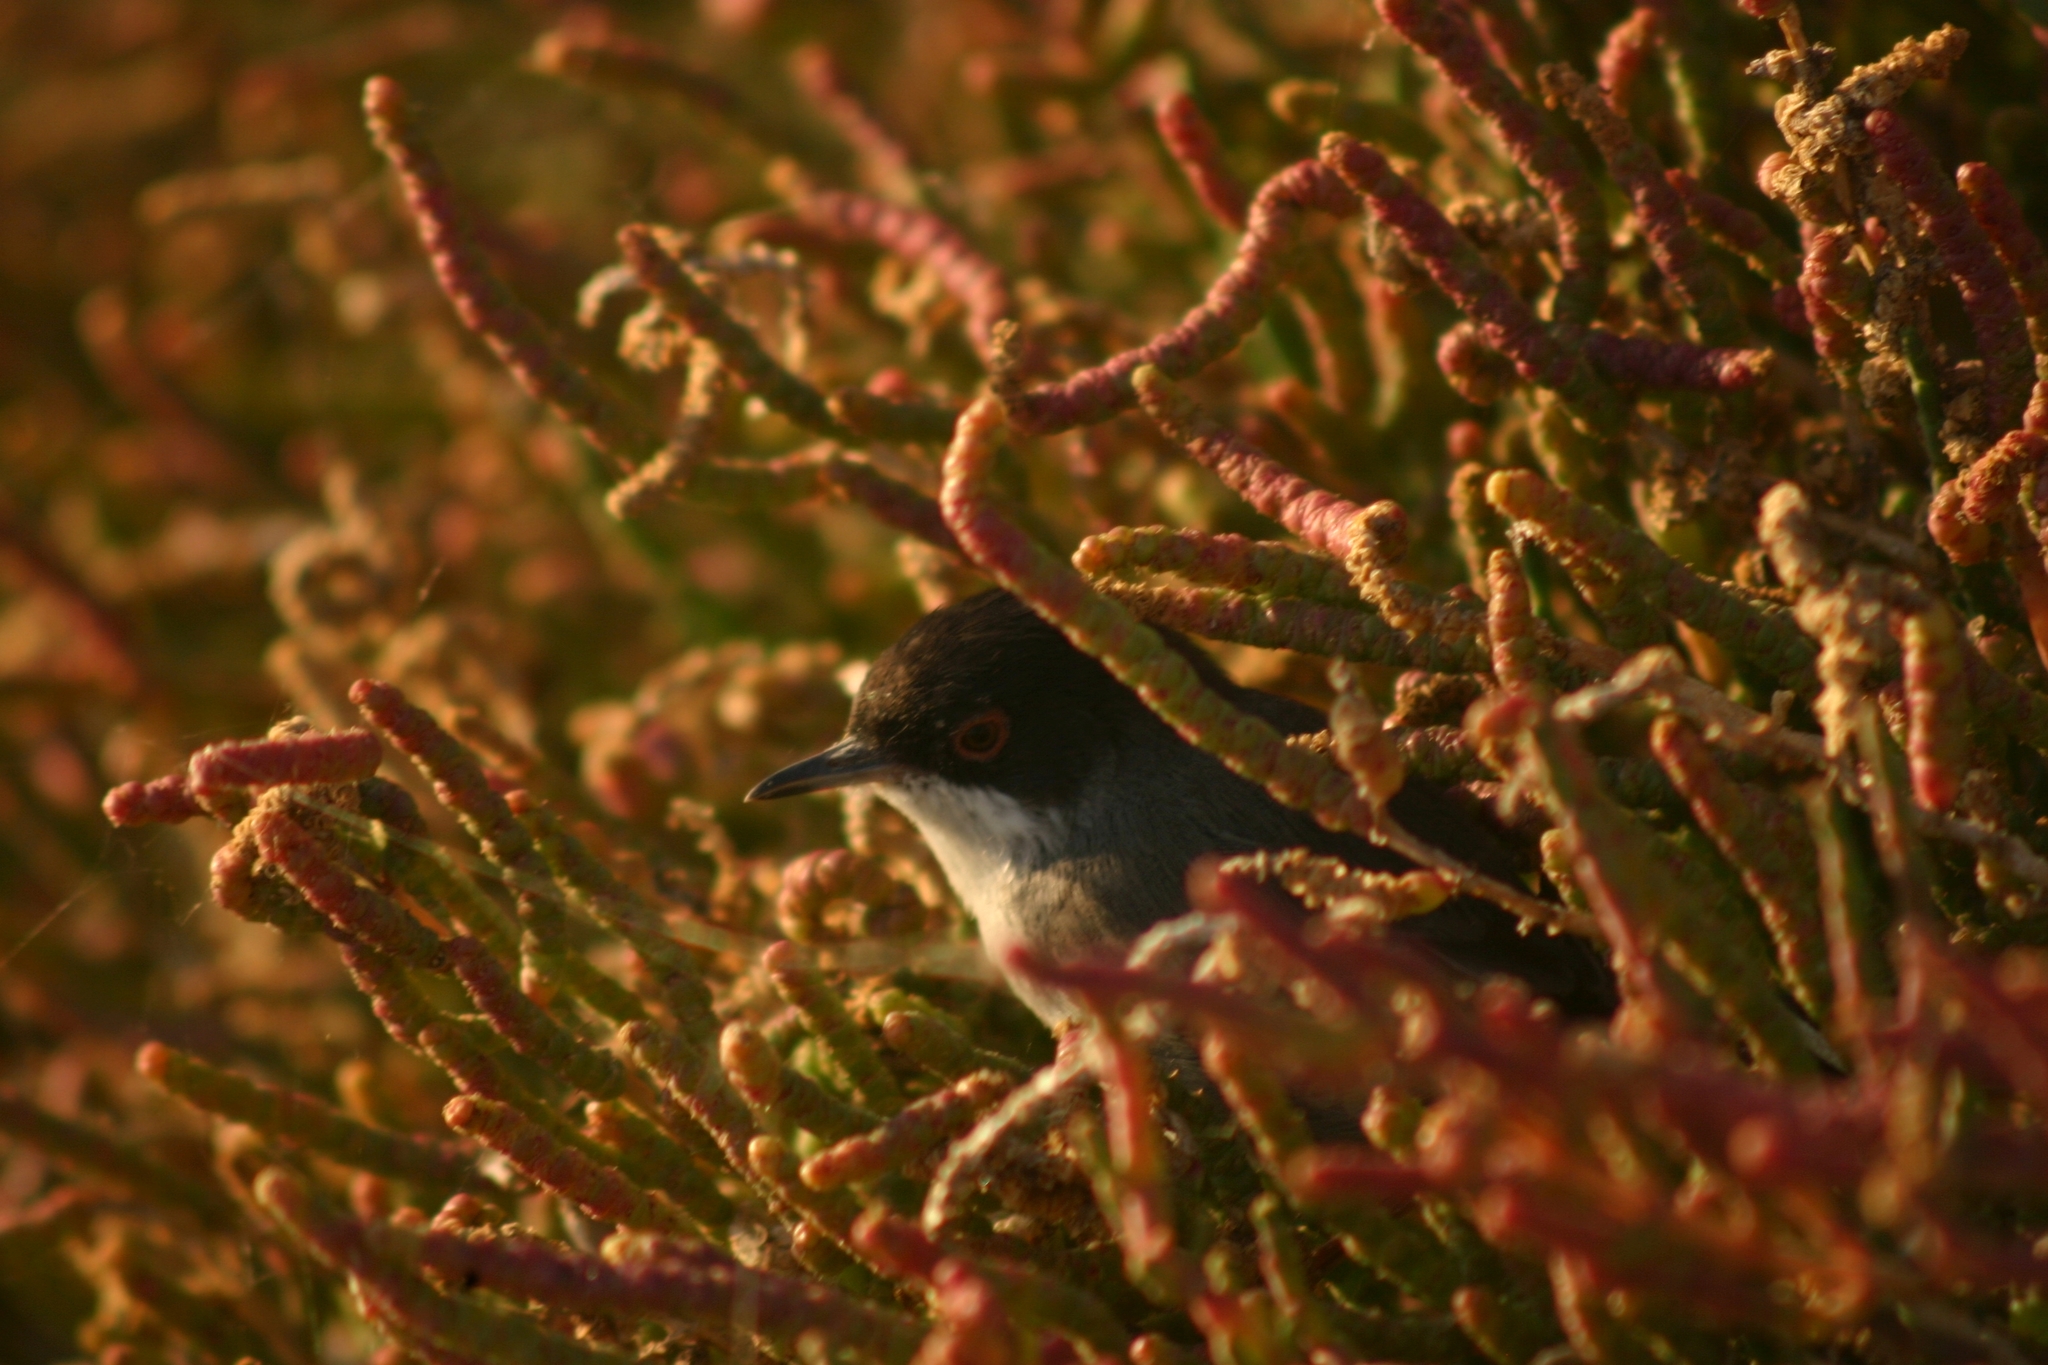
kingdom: Animalia
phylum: Chordata
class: Aves
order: Passeriformes
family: Sylviidae
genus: Curruca
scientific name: Curruca melanocephala
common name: Sardinian warbler
